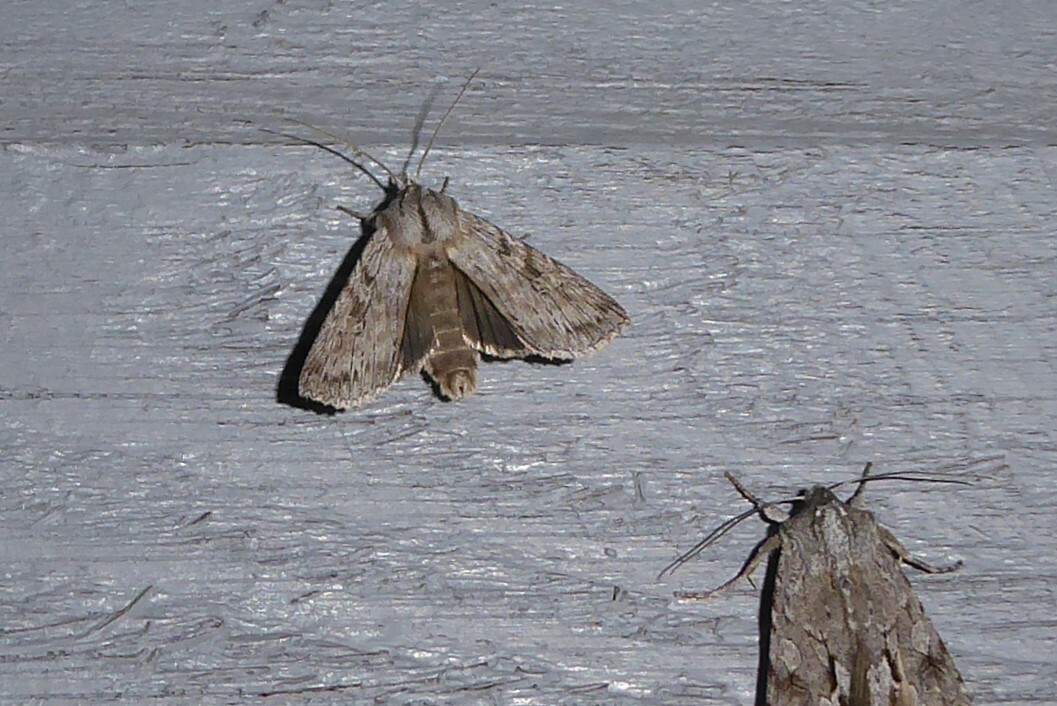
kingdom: Animalia
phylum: Arthropoda
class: Insecta
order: Lepidoptera
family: Noctuidae
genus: Physetica
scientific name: Physetica phricias
